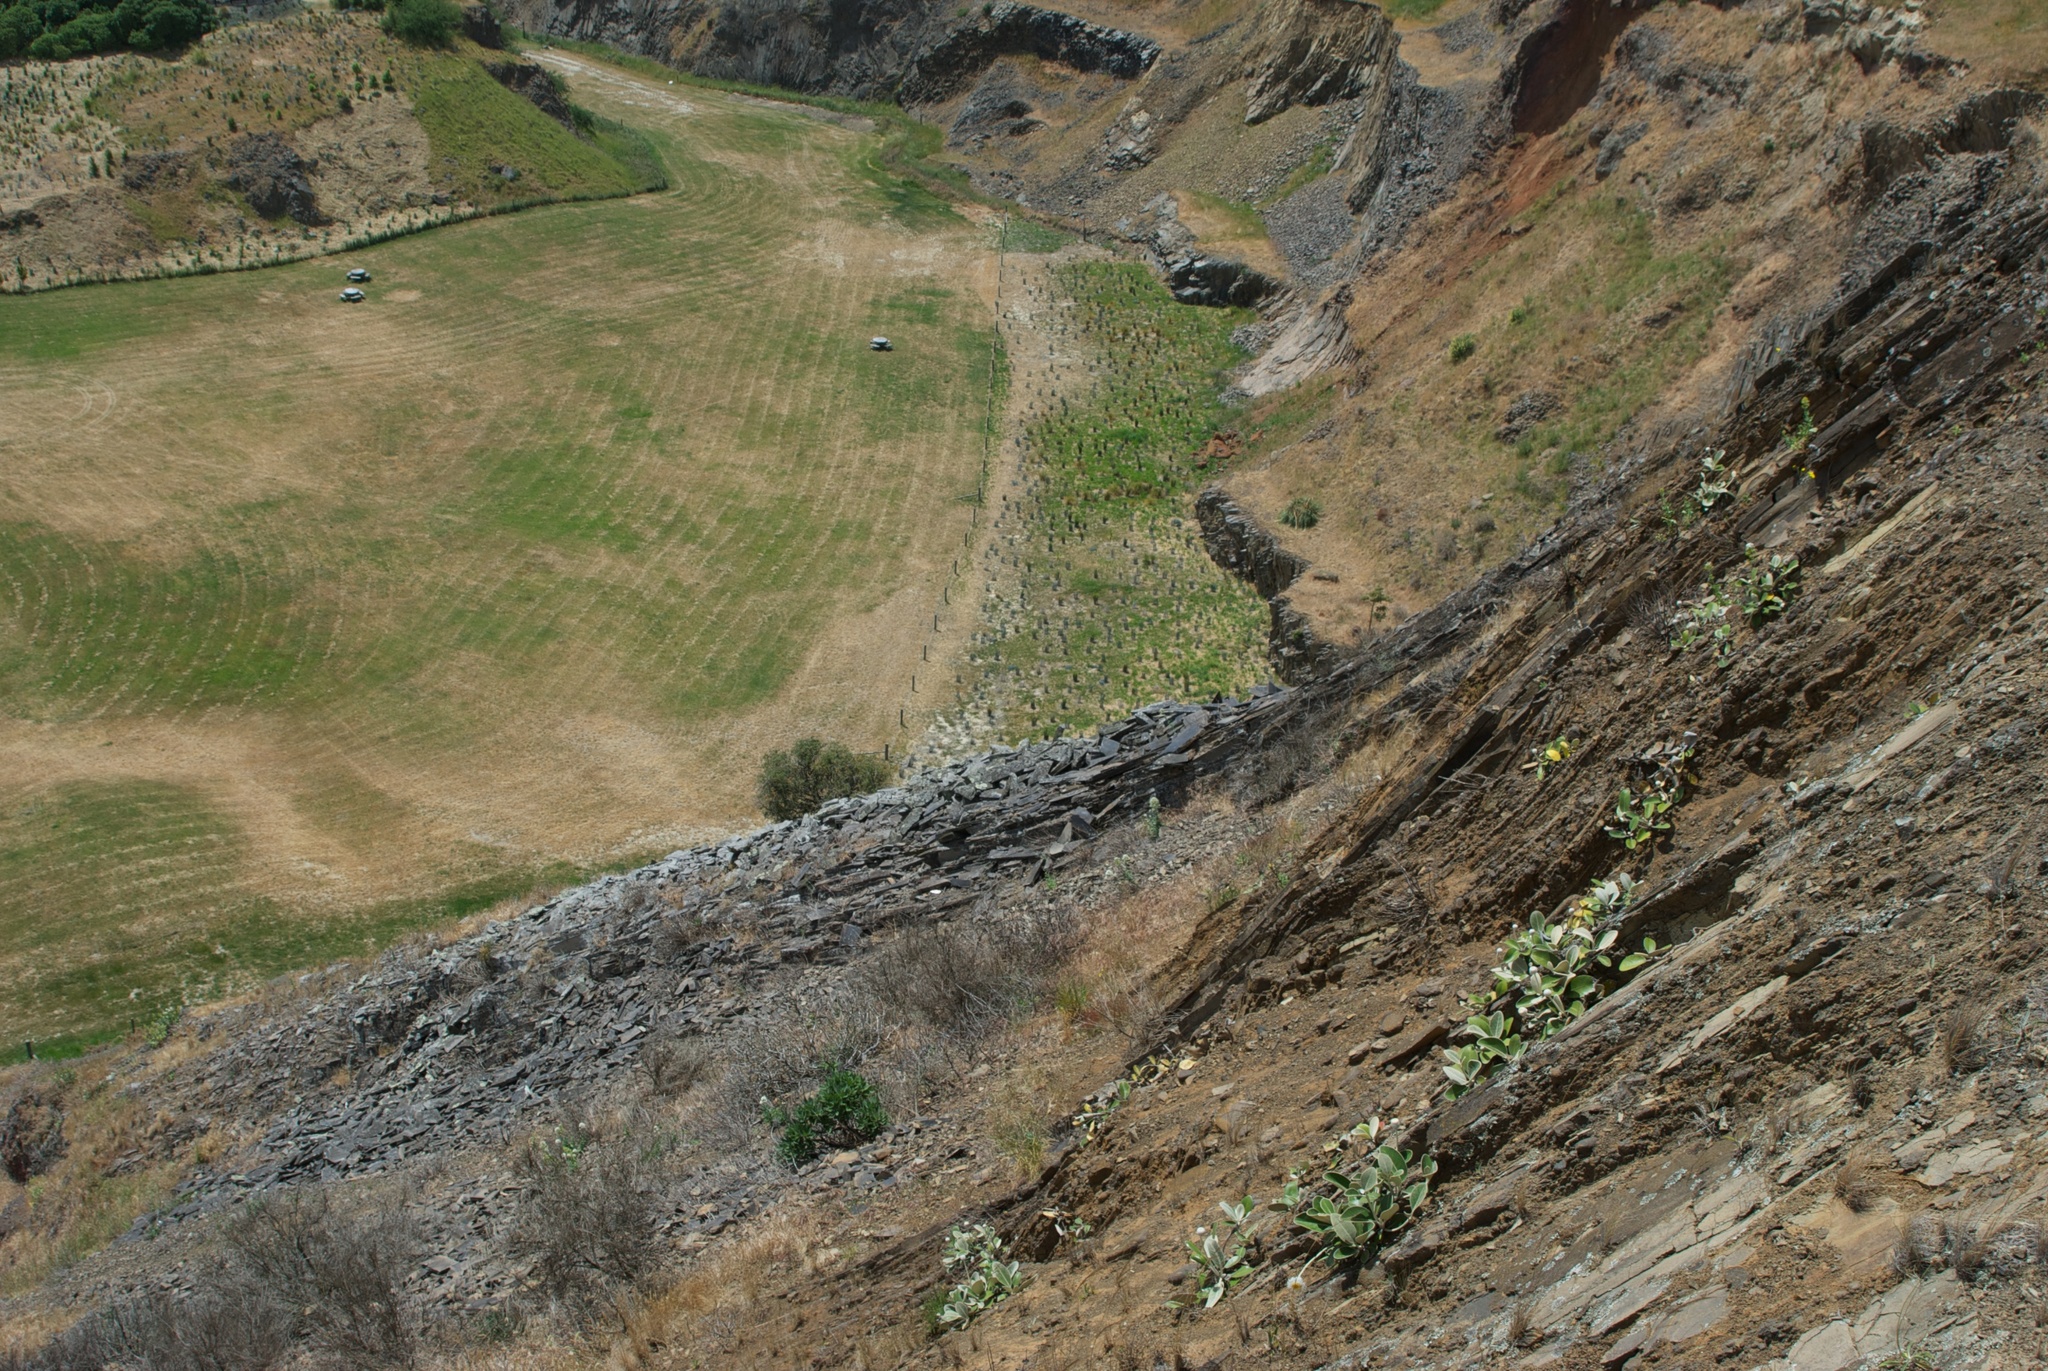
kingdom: Plantae
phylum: Tracheophyta
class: Magnoliopsida
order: Asterales
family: Asteraceae
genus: Pachystegia
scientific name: Pachystegia insignis
